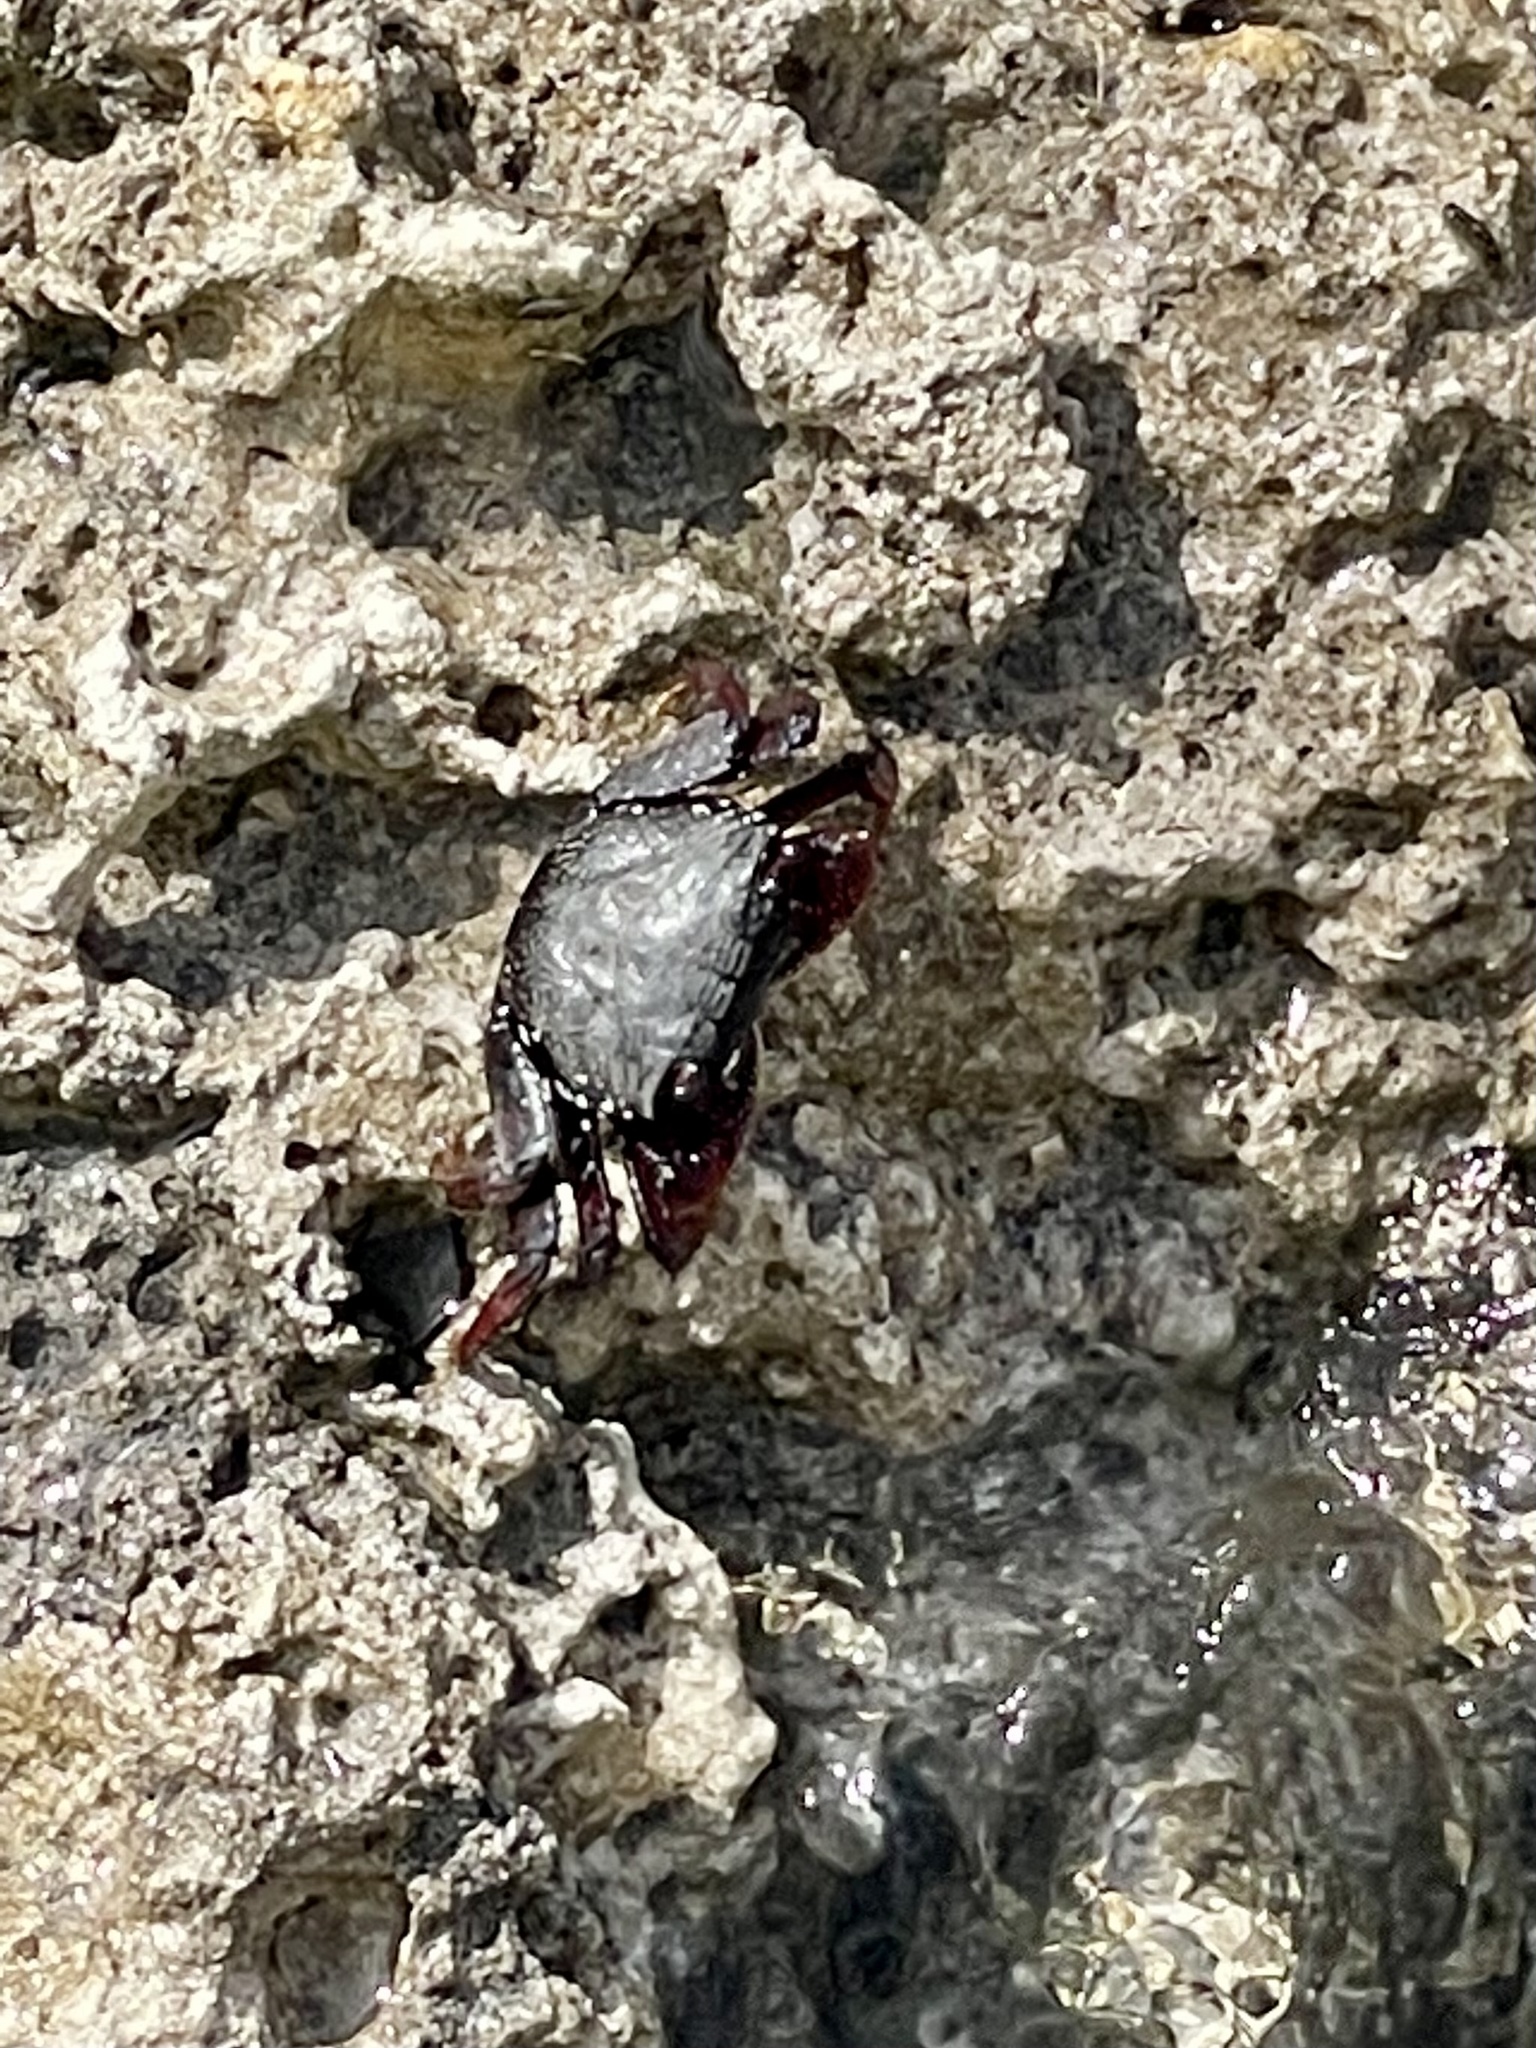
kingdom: Animalia
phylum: Arthropoda
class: Malacostraca
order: Decapoda
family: Grapsidae
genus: Goniopsis
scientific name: Goniopsis cruentata
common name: Mangrove crab
